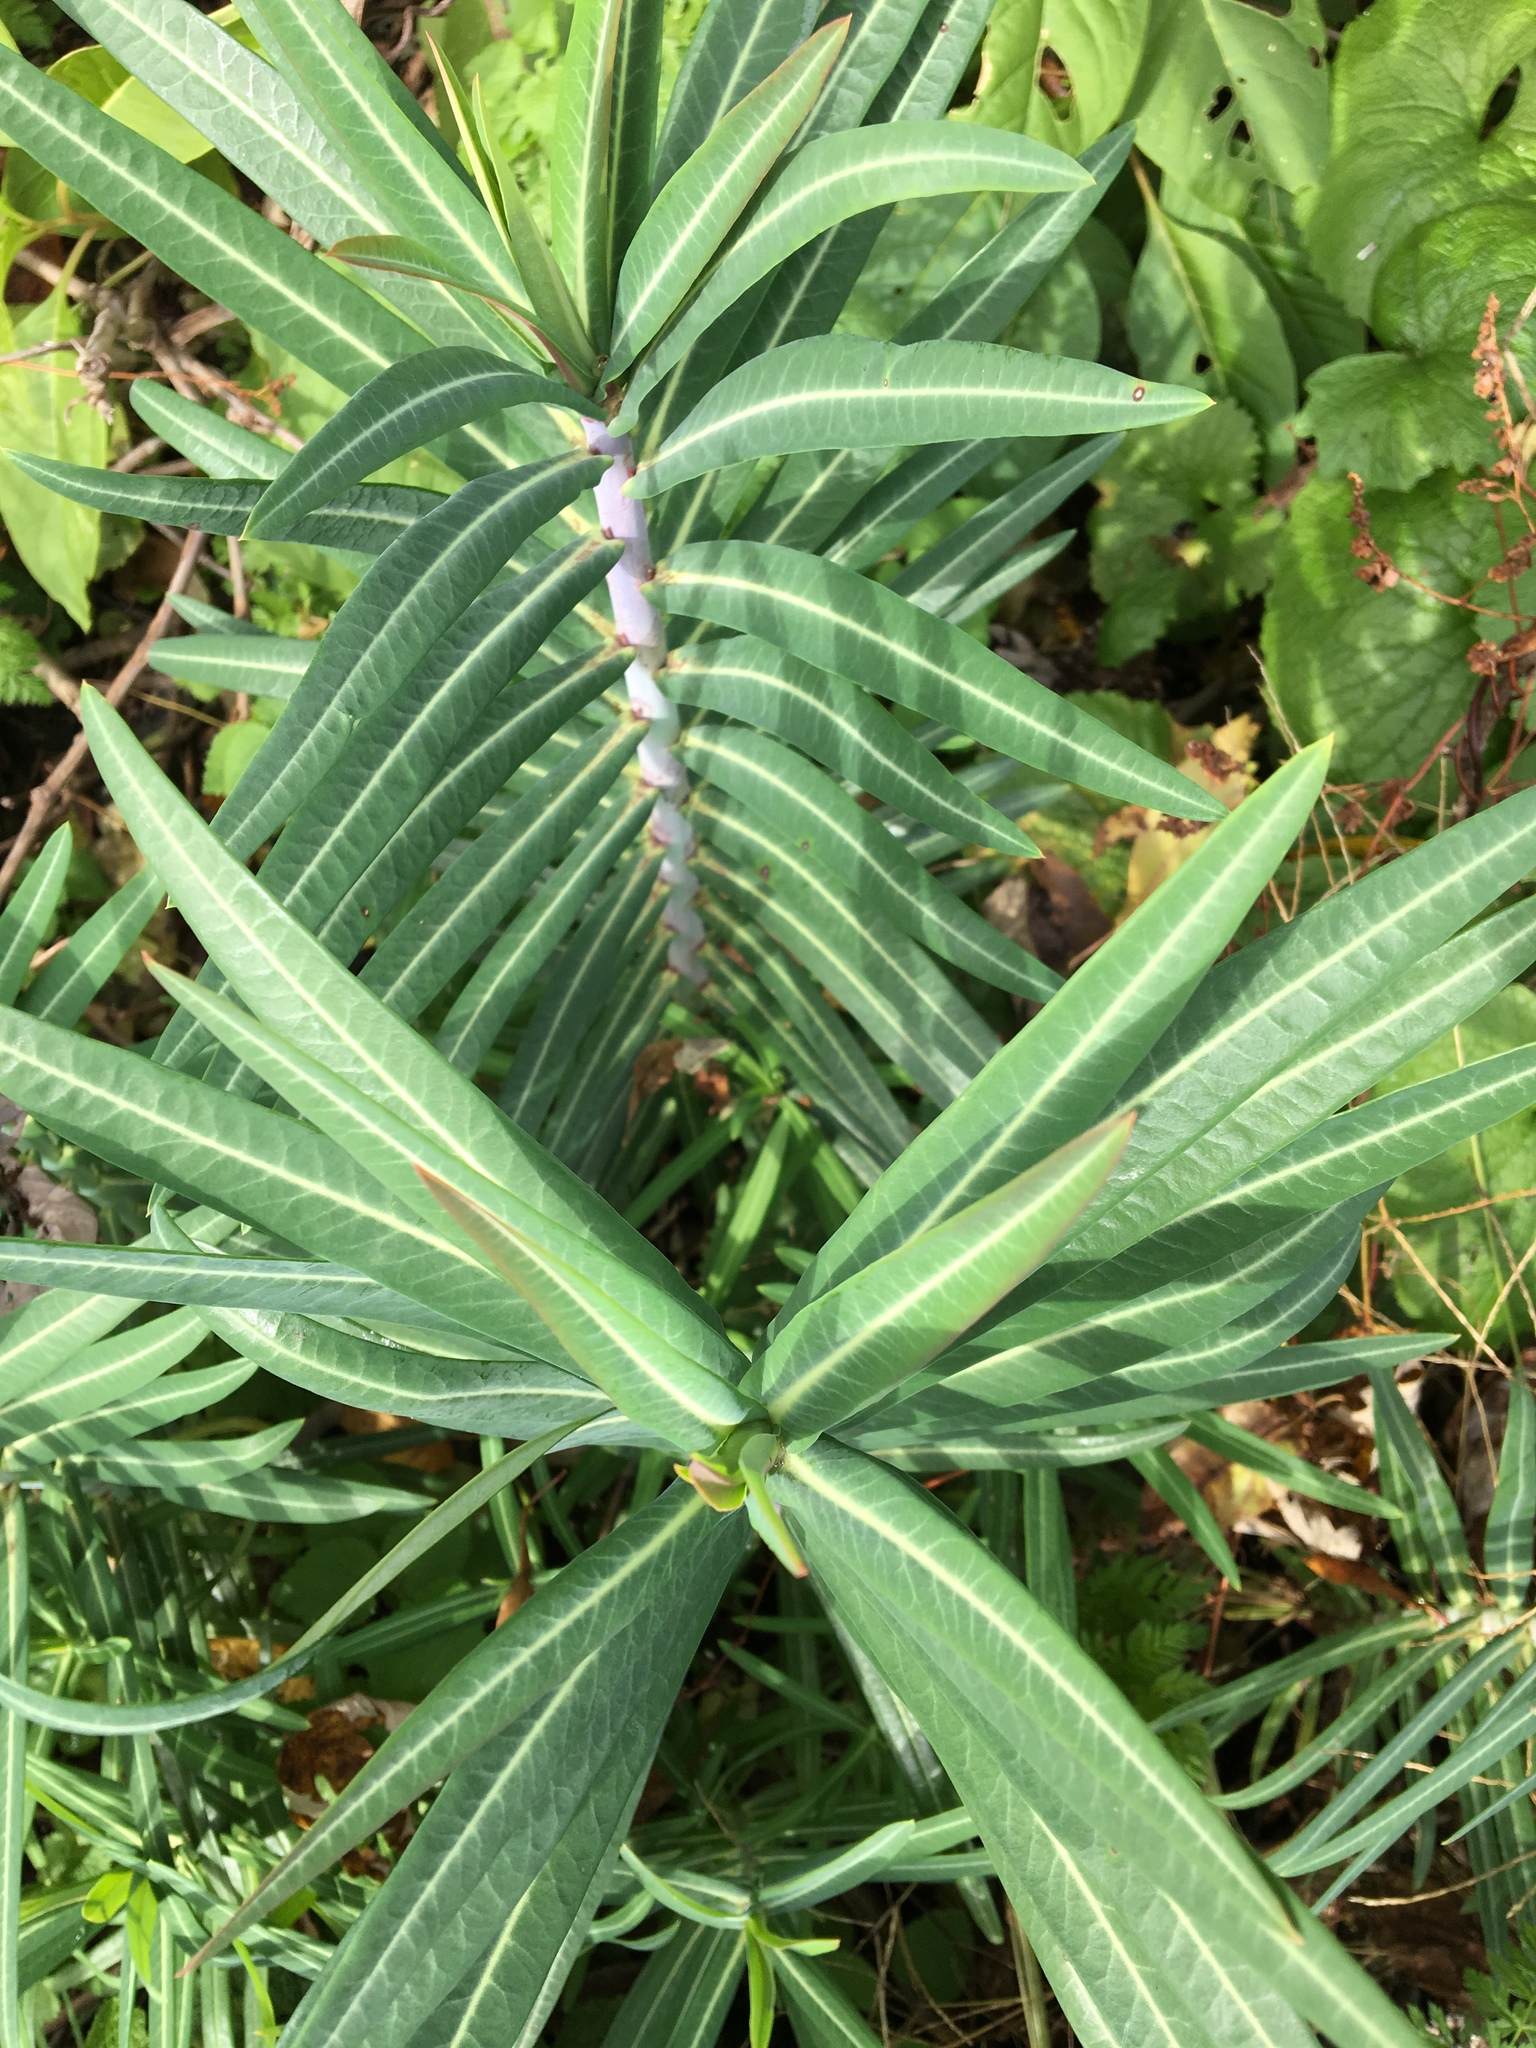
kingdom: Plantae
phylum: Tracheophyta
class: Magnoliopsida
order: Malpighiales
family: Euphorbiaceae
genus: Euphorbia
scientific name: Euphorbia lathyris
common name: Caper spurge
